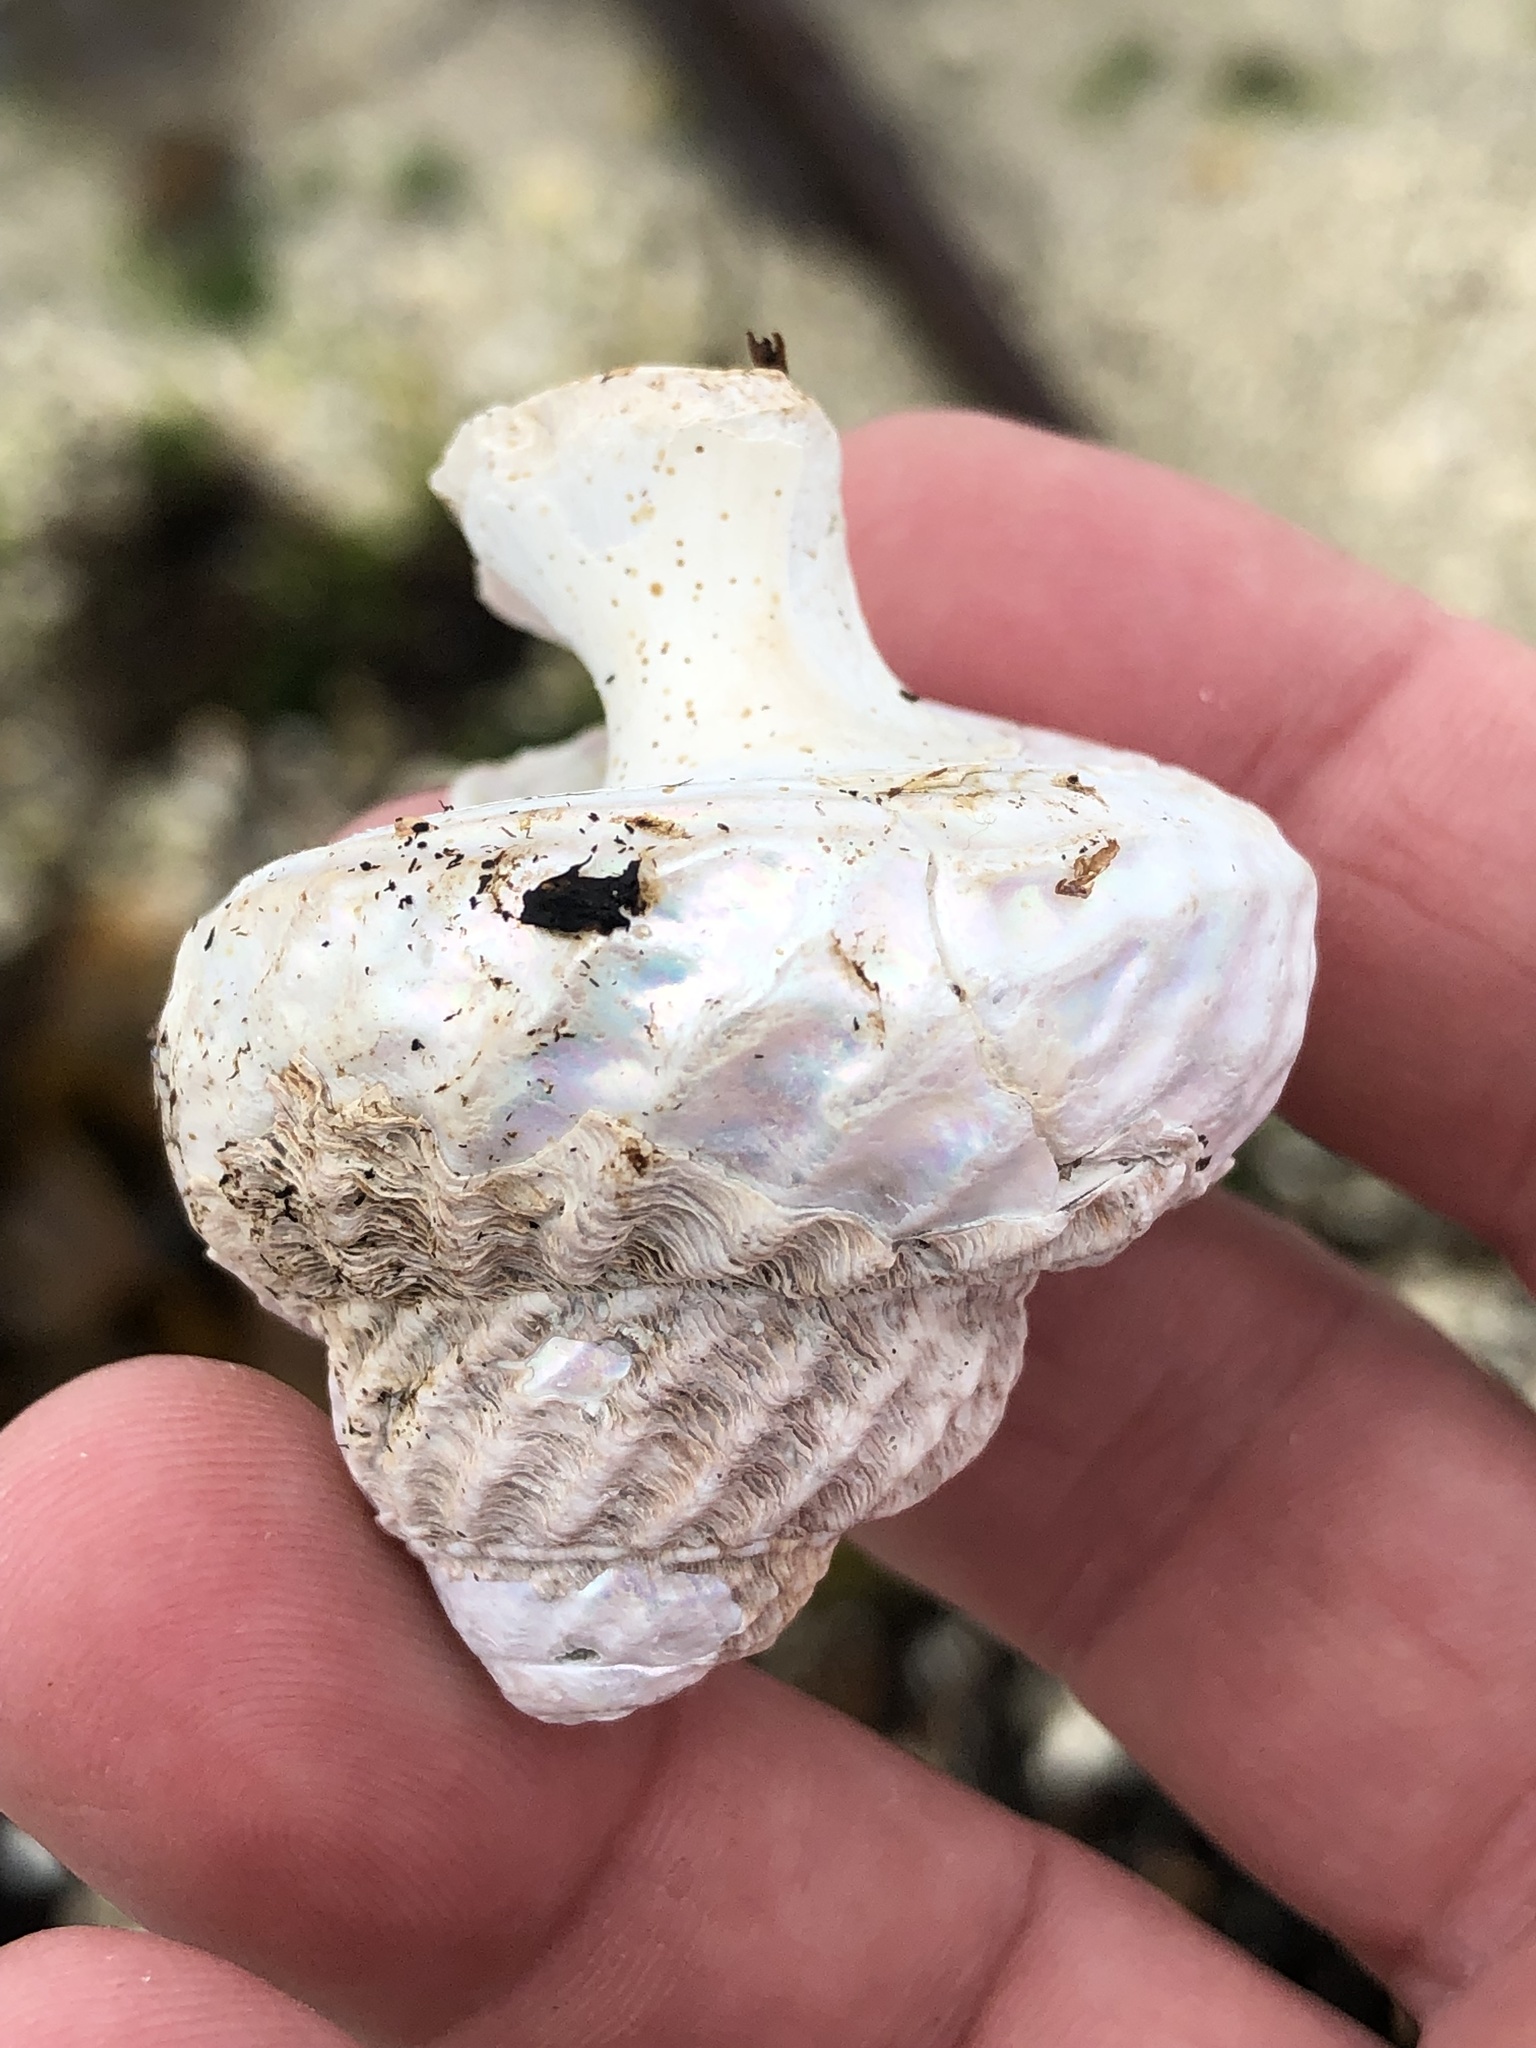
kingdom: Animalia
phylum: Mollusca
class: Gastropoda
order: Trochida
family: Turbinidae
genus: Cookia
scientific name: Cookia sulcata
